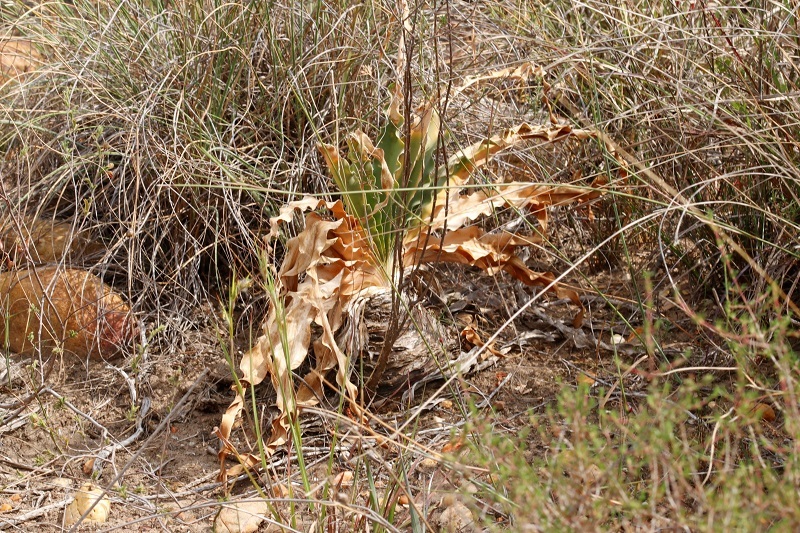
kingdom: Plantae
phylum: Tracheophyta
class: Liliopsida
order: Asparagales
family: Amaryllidaceae
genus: Boophone
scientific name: Boophone disticha
